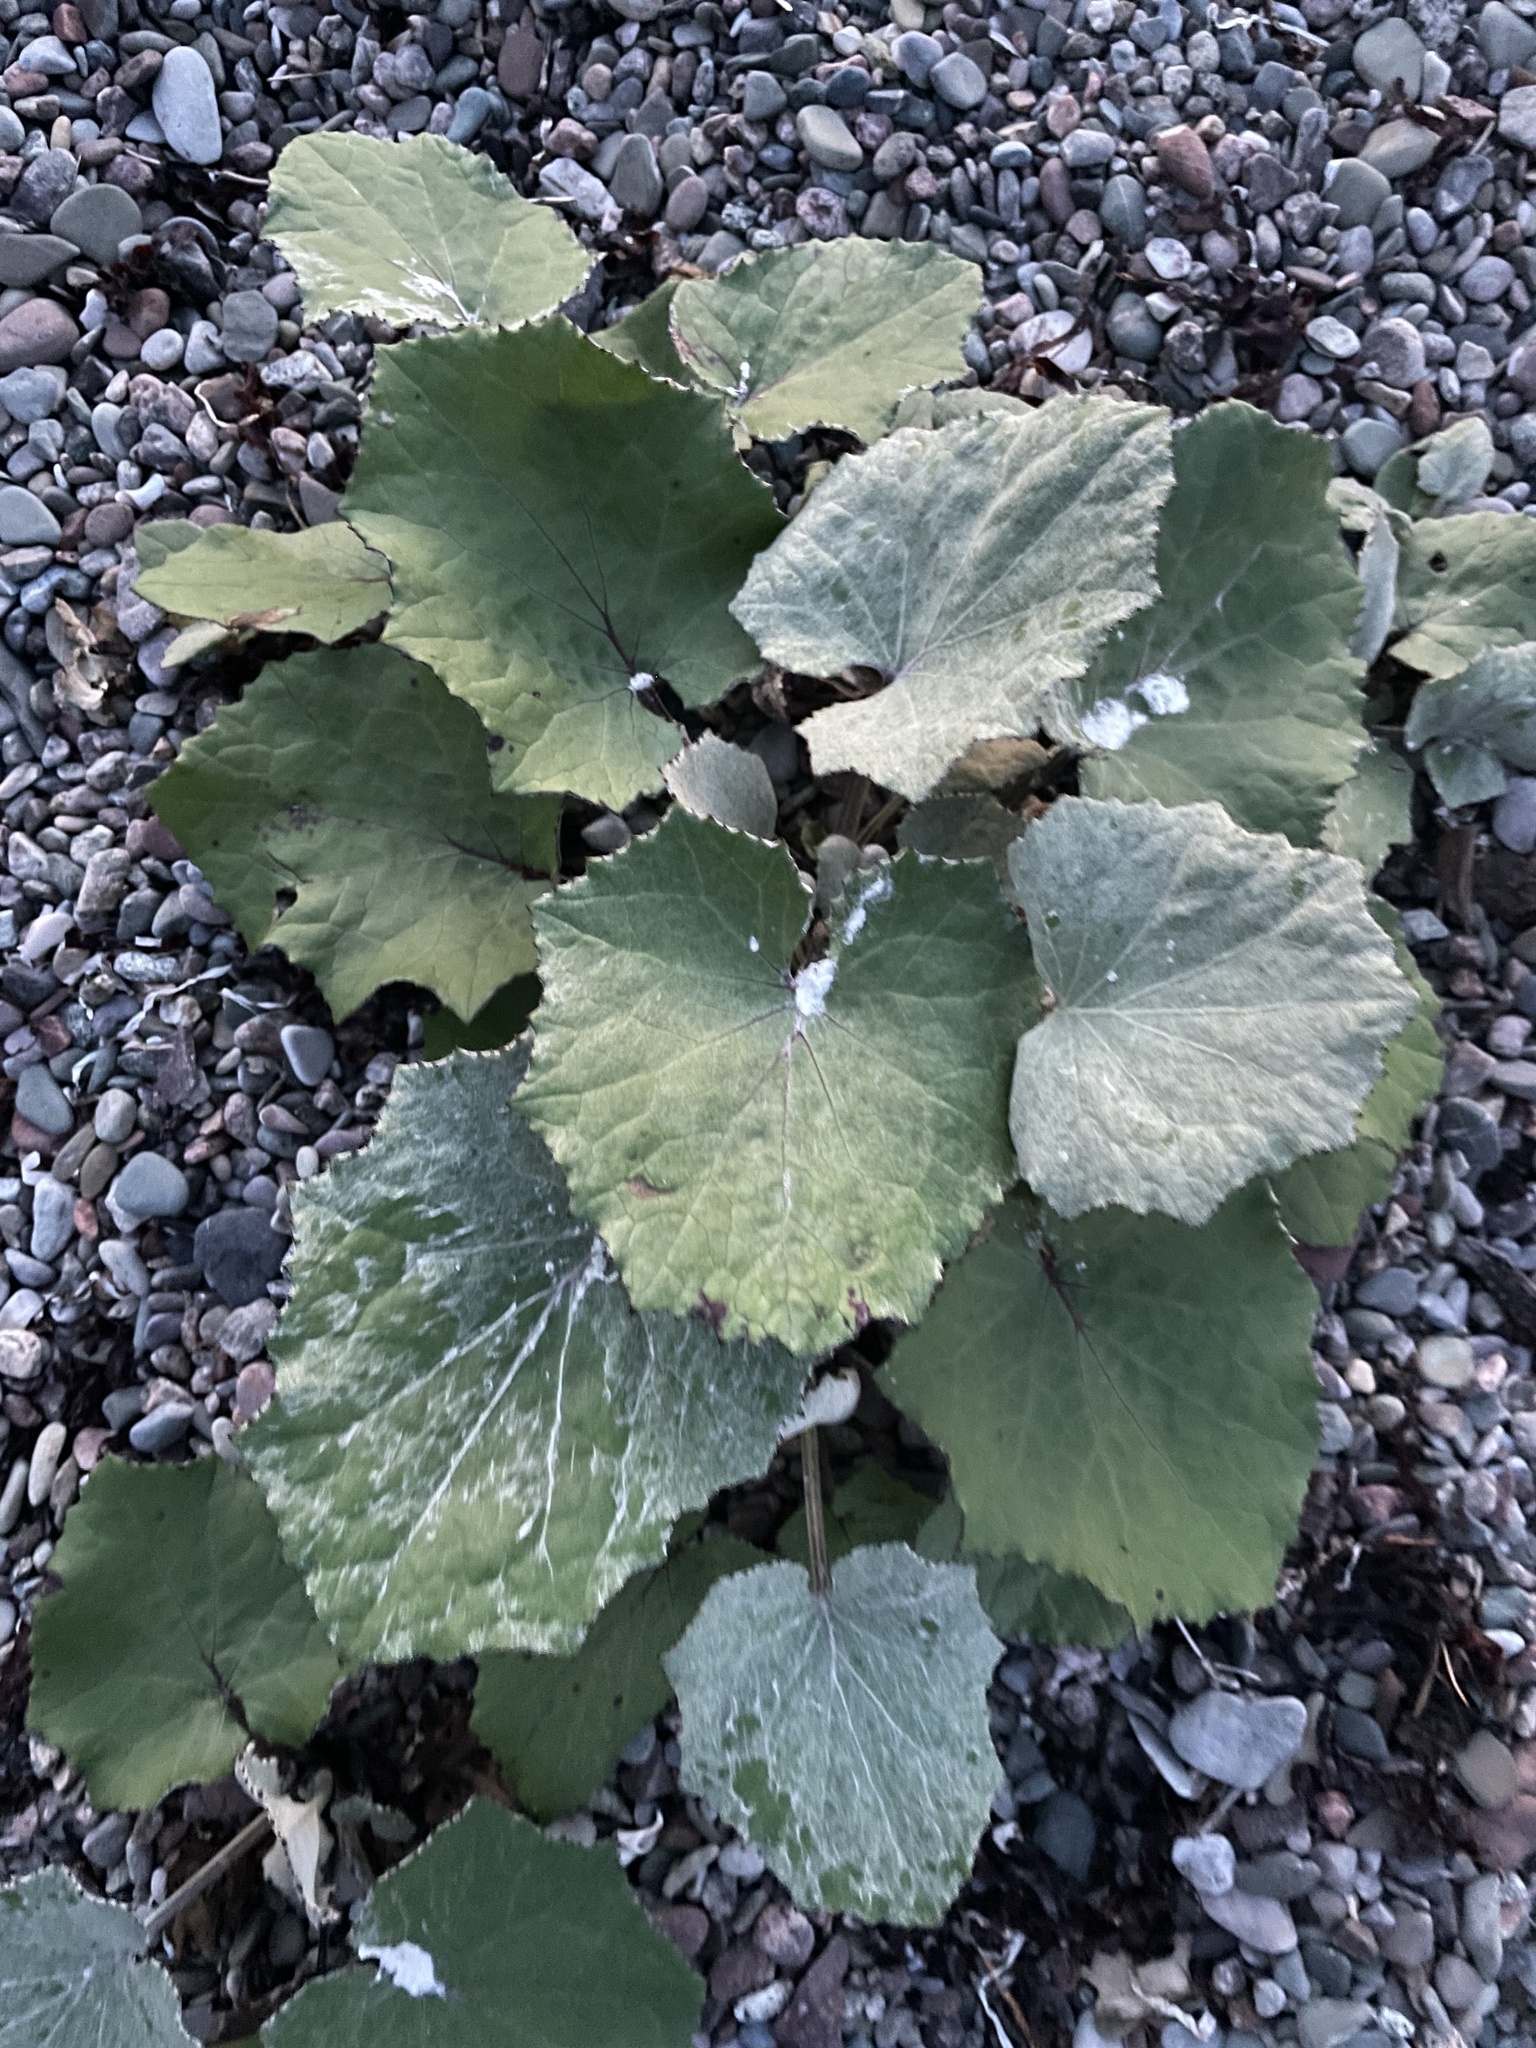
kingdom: Plantae
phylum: Tracheophyta
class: Magnoliopsida
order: Asterales
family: Asteraceae
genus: Tussilago
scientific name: Tussilago farfara
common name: Coltsfoot
